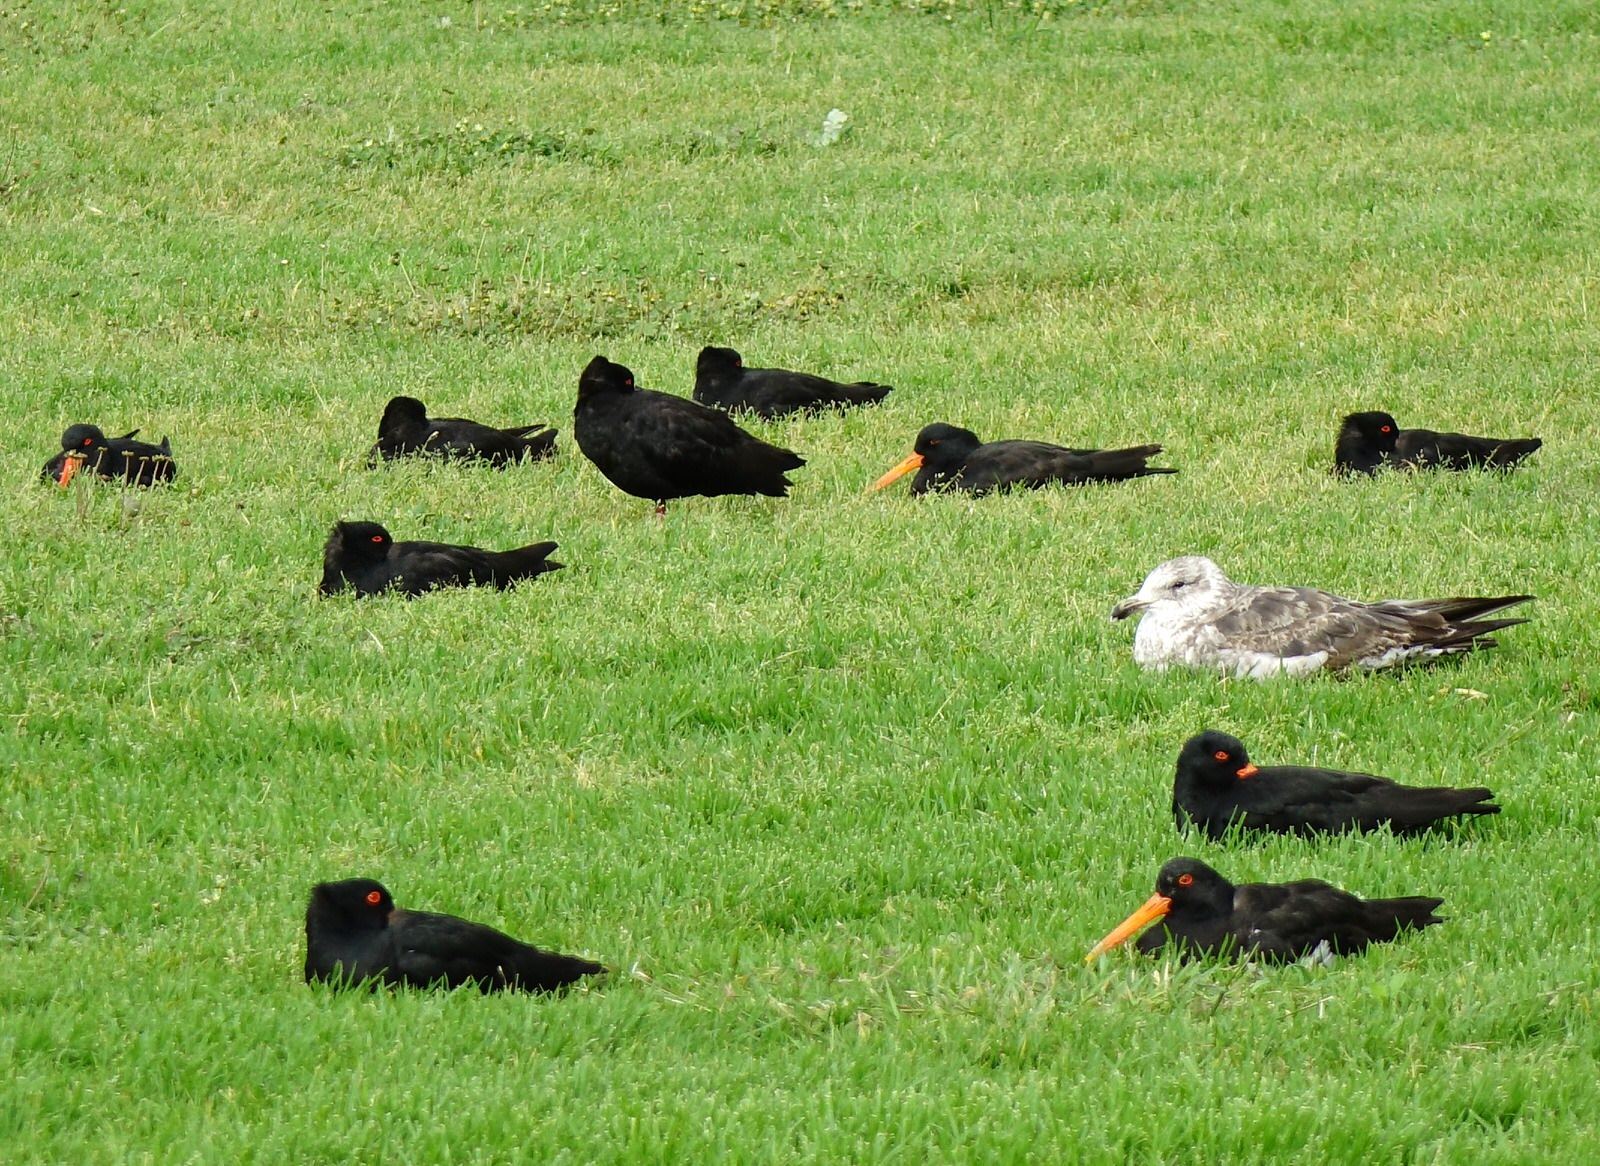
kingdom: Animalia
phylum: Chordata
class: Aves
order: Charadriiformes
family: Haematopodidae
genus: Haematopus
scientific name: Haematopus unicolor
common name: Variable oystercatcher
